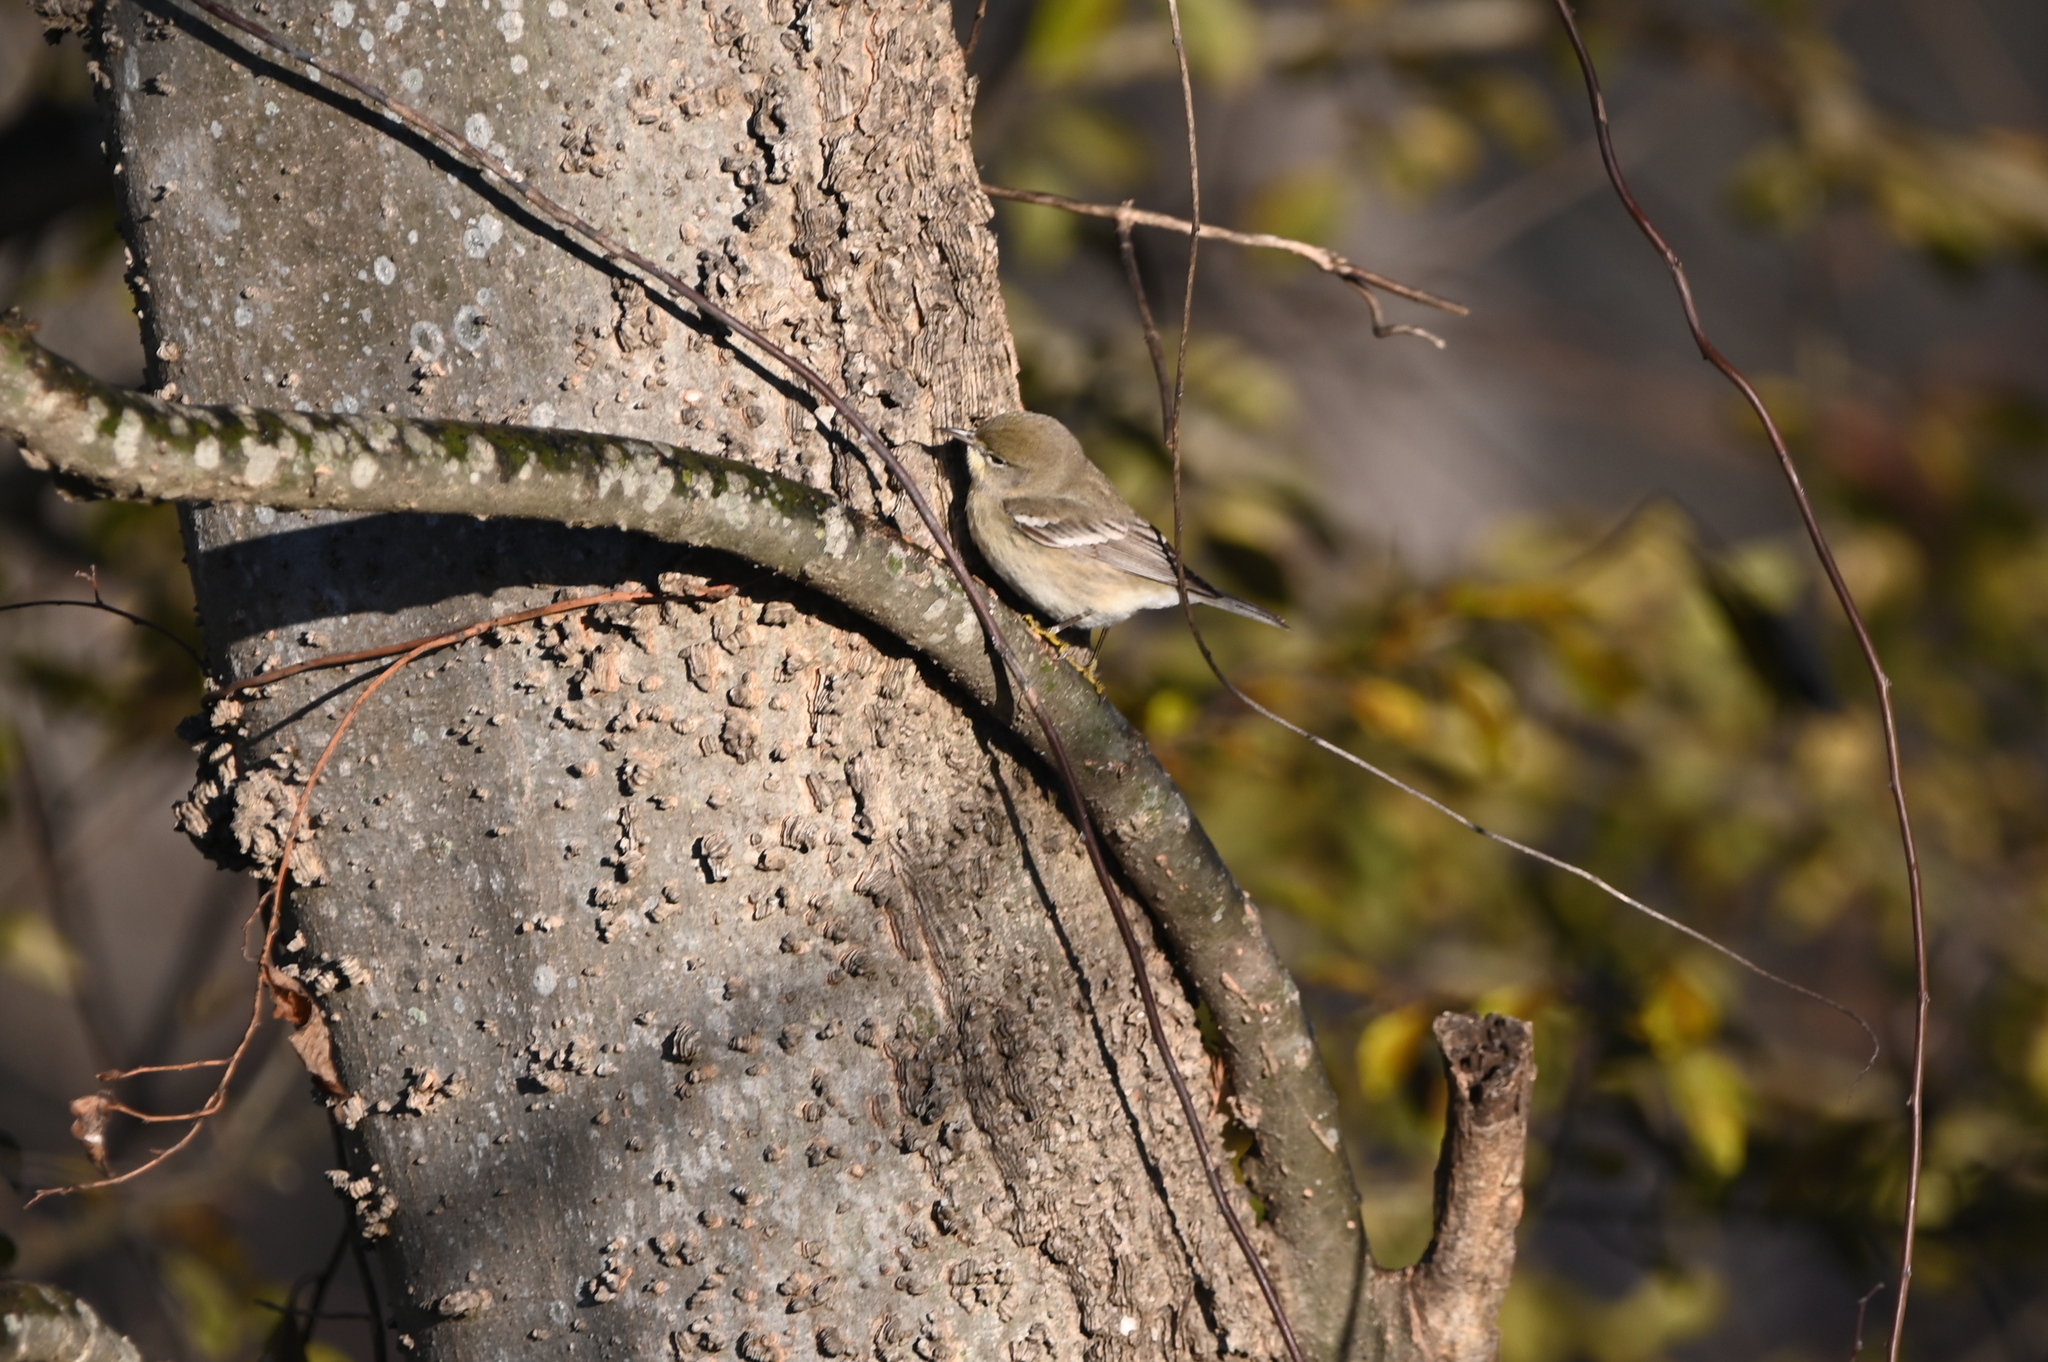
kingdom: Animalia
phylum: Chordata
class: Aves
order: Passeriformes
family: Parulidae
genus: Setophaga
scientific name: Setophaga pinus
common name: Pine warbler
